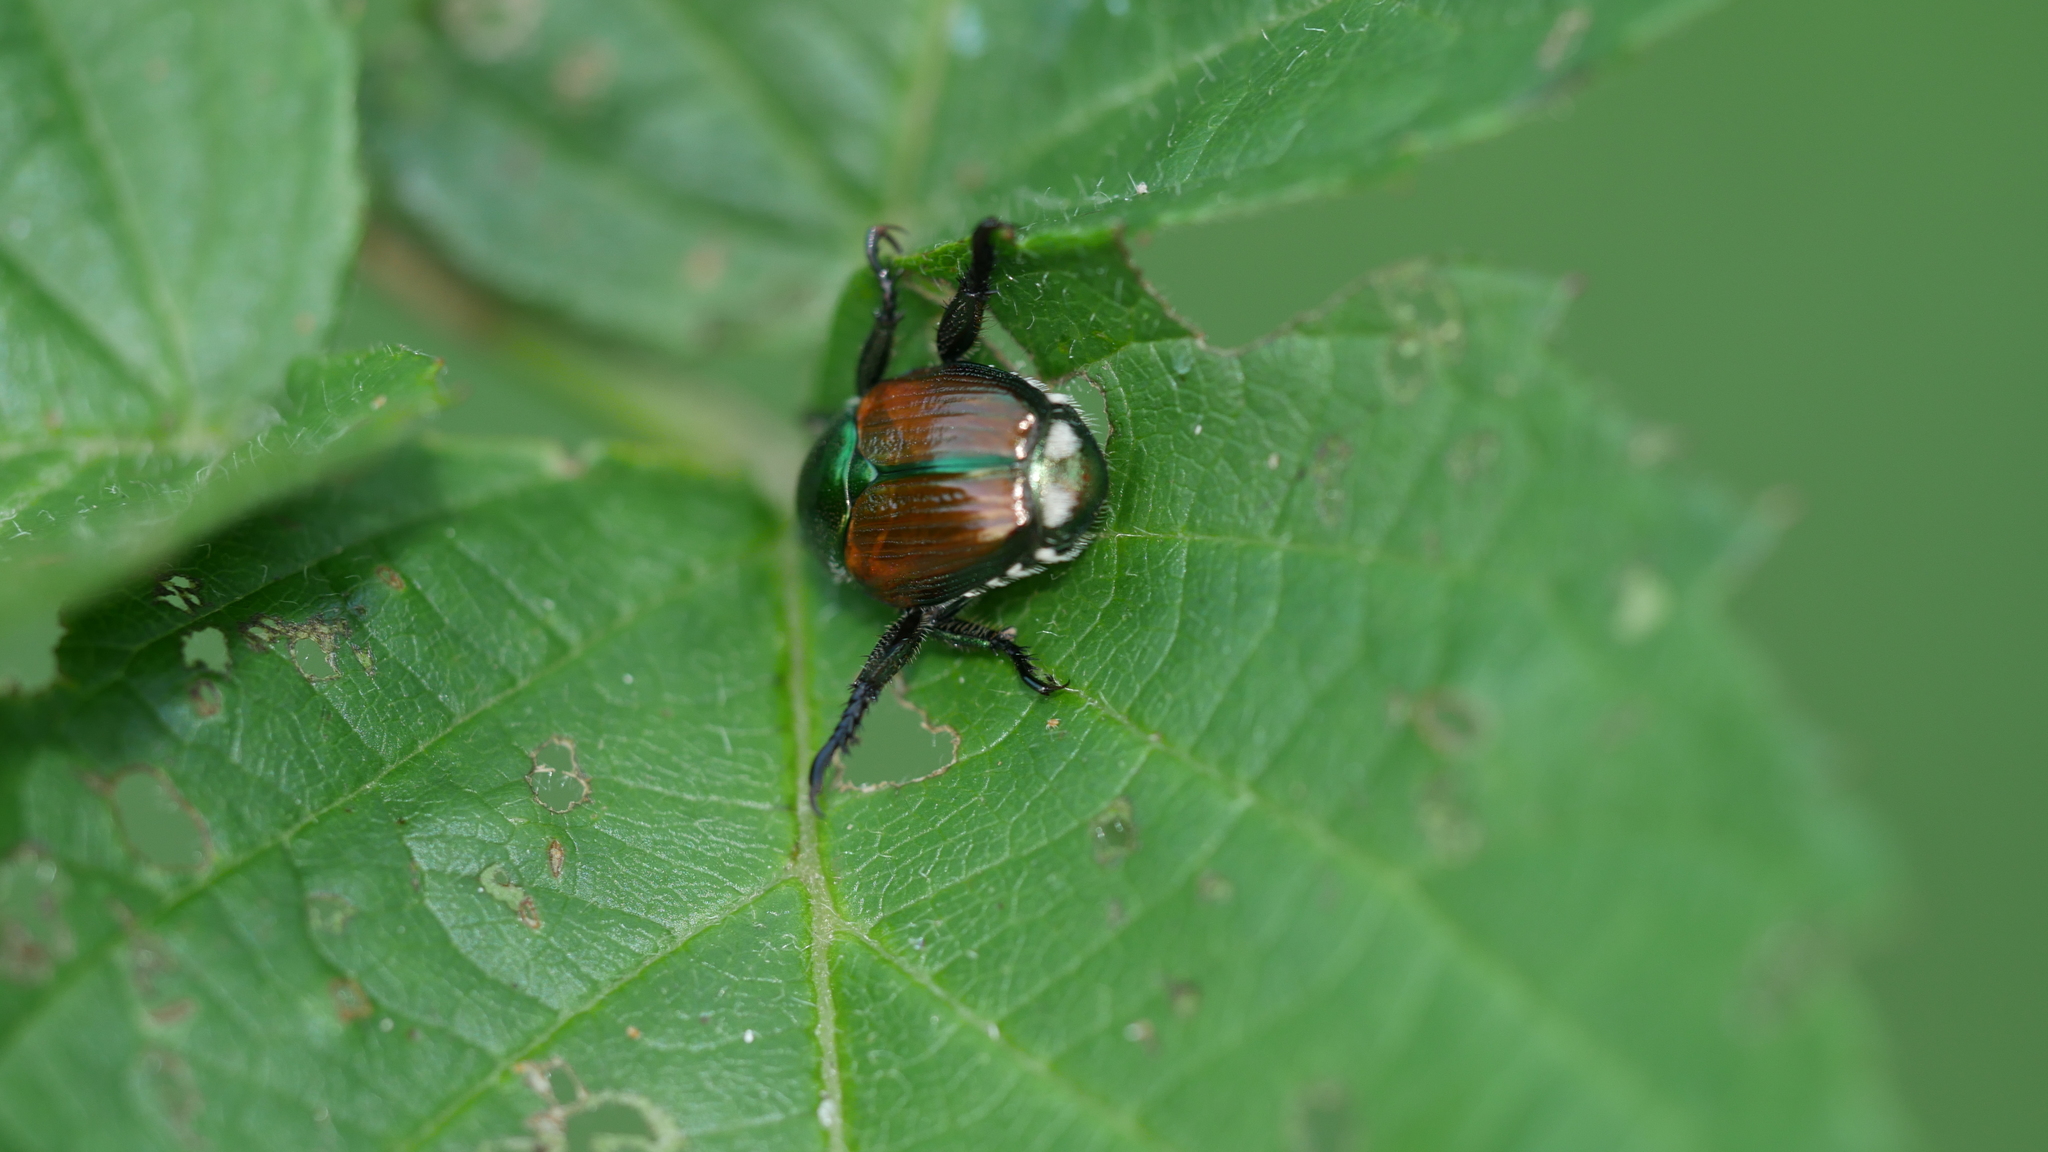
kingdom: Animalia
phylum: Arthropoda
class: Insecta
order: Coleoptera
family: Scarabaeidae
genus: Popillia
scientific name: Popillia japonica
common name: Japanese beetle
